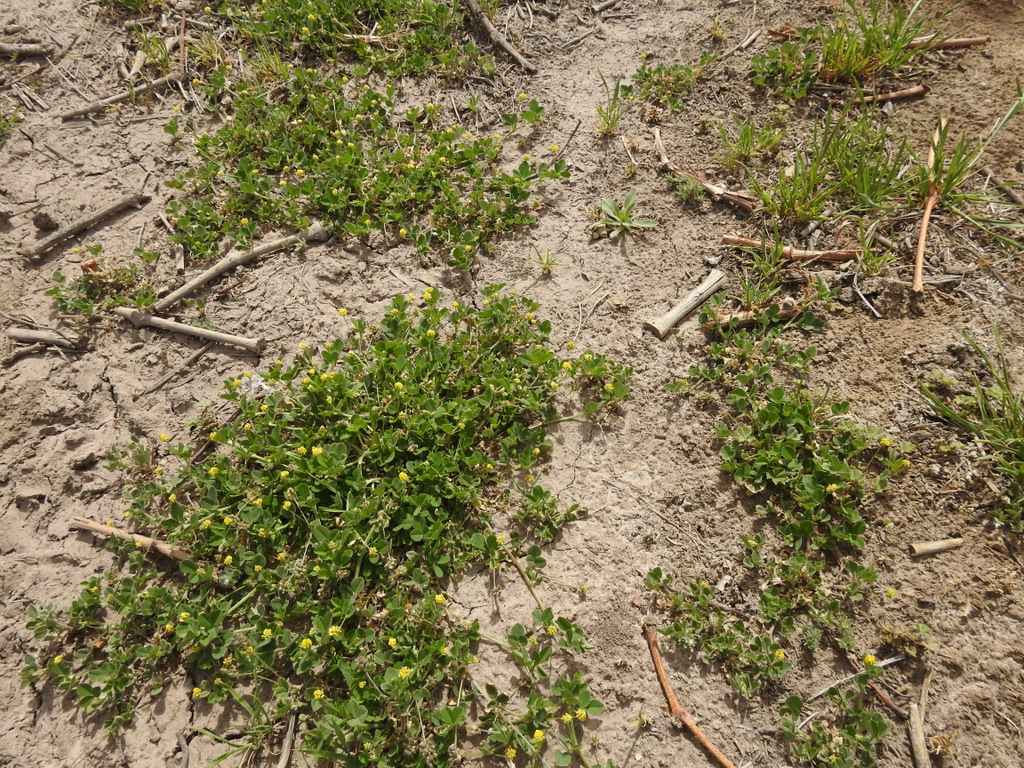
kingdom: Plantae
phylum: Tracheophyta
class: Magnoliopsida
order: Fabales
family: Fabaceae
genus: Medicago
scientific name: Medicago lupulina
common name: Black medick
